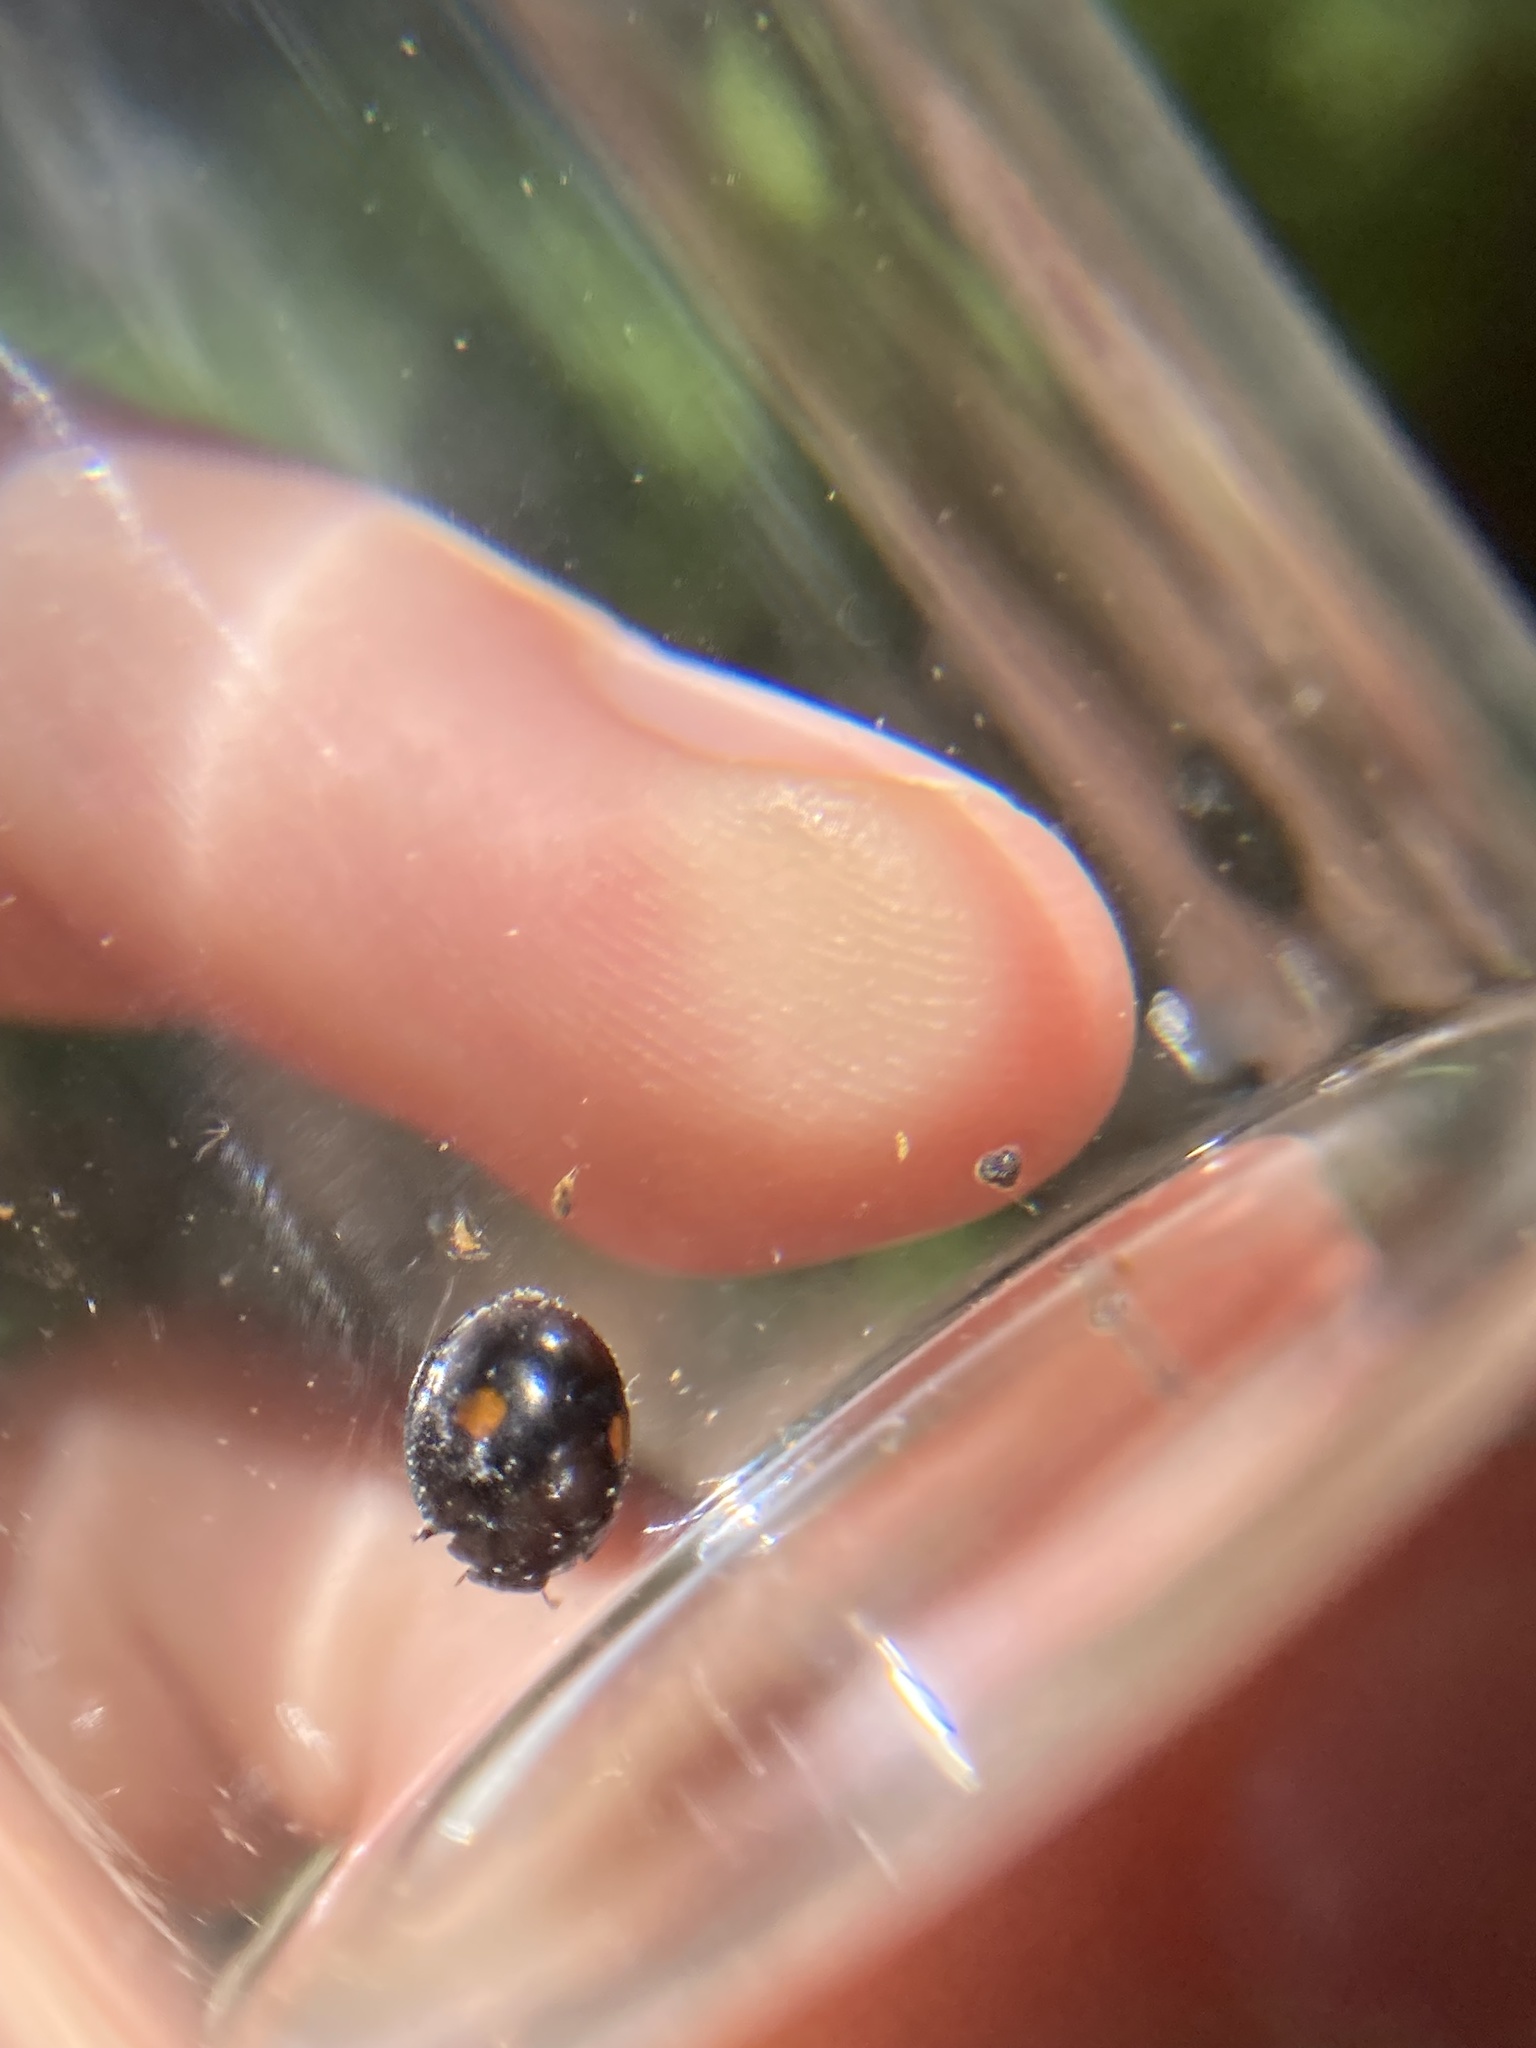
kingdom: Animalia
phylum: Arthropoda
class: Insecta
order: Coleoptera
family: Coccinellidae
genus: Chilocorus
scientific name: Chilocorus stigma
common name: Twicestabbed lady beetle
